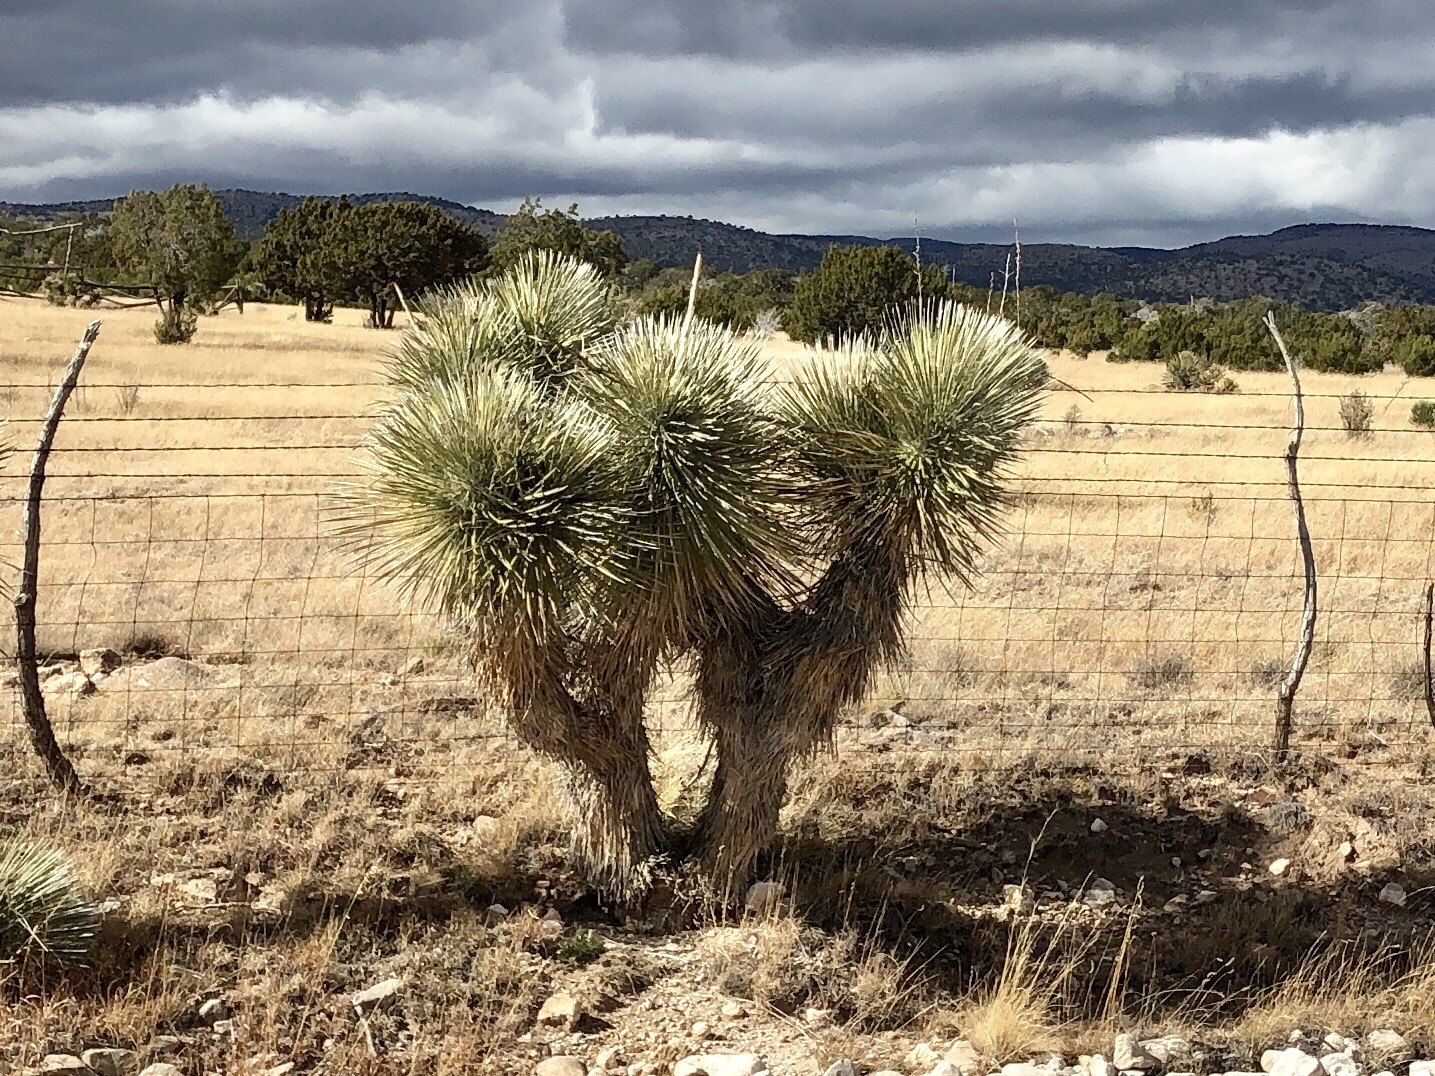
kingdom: Plantae
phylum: Tracheophyta
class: Liliopsida
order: Asparagales
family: Asparagaceae
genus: Yucca
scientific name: Yucca elata
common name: Palmella
